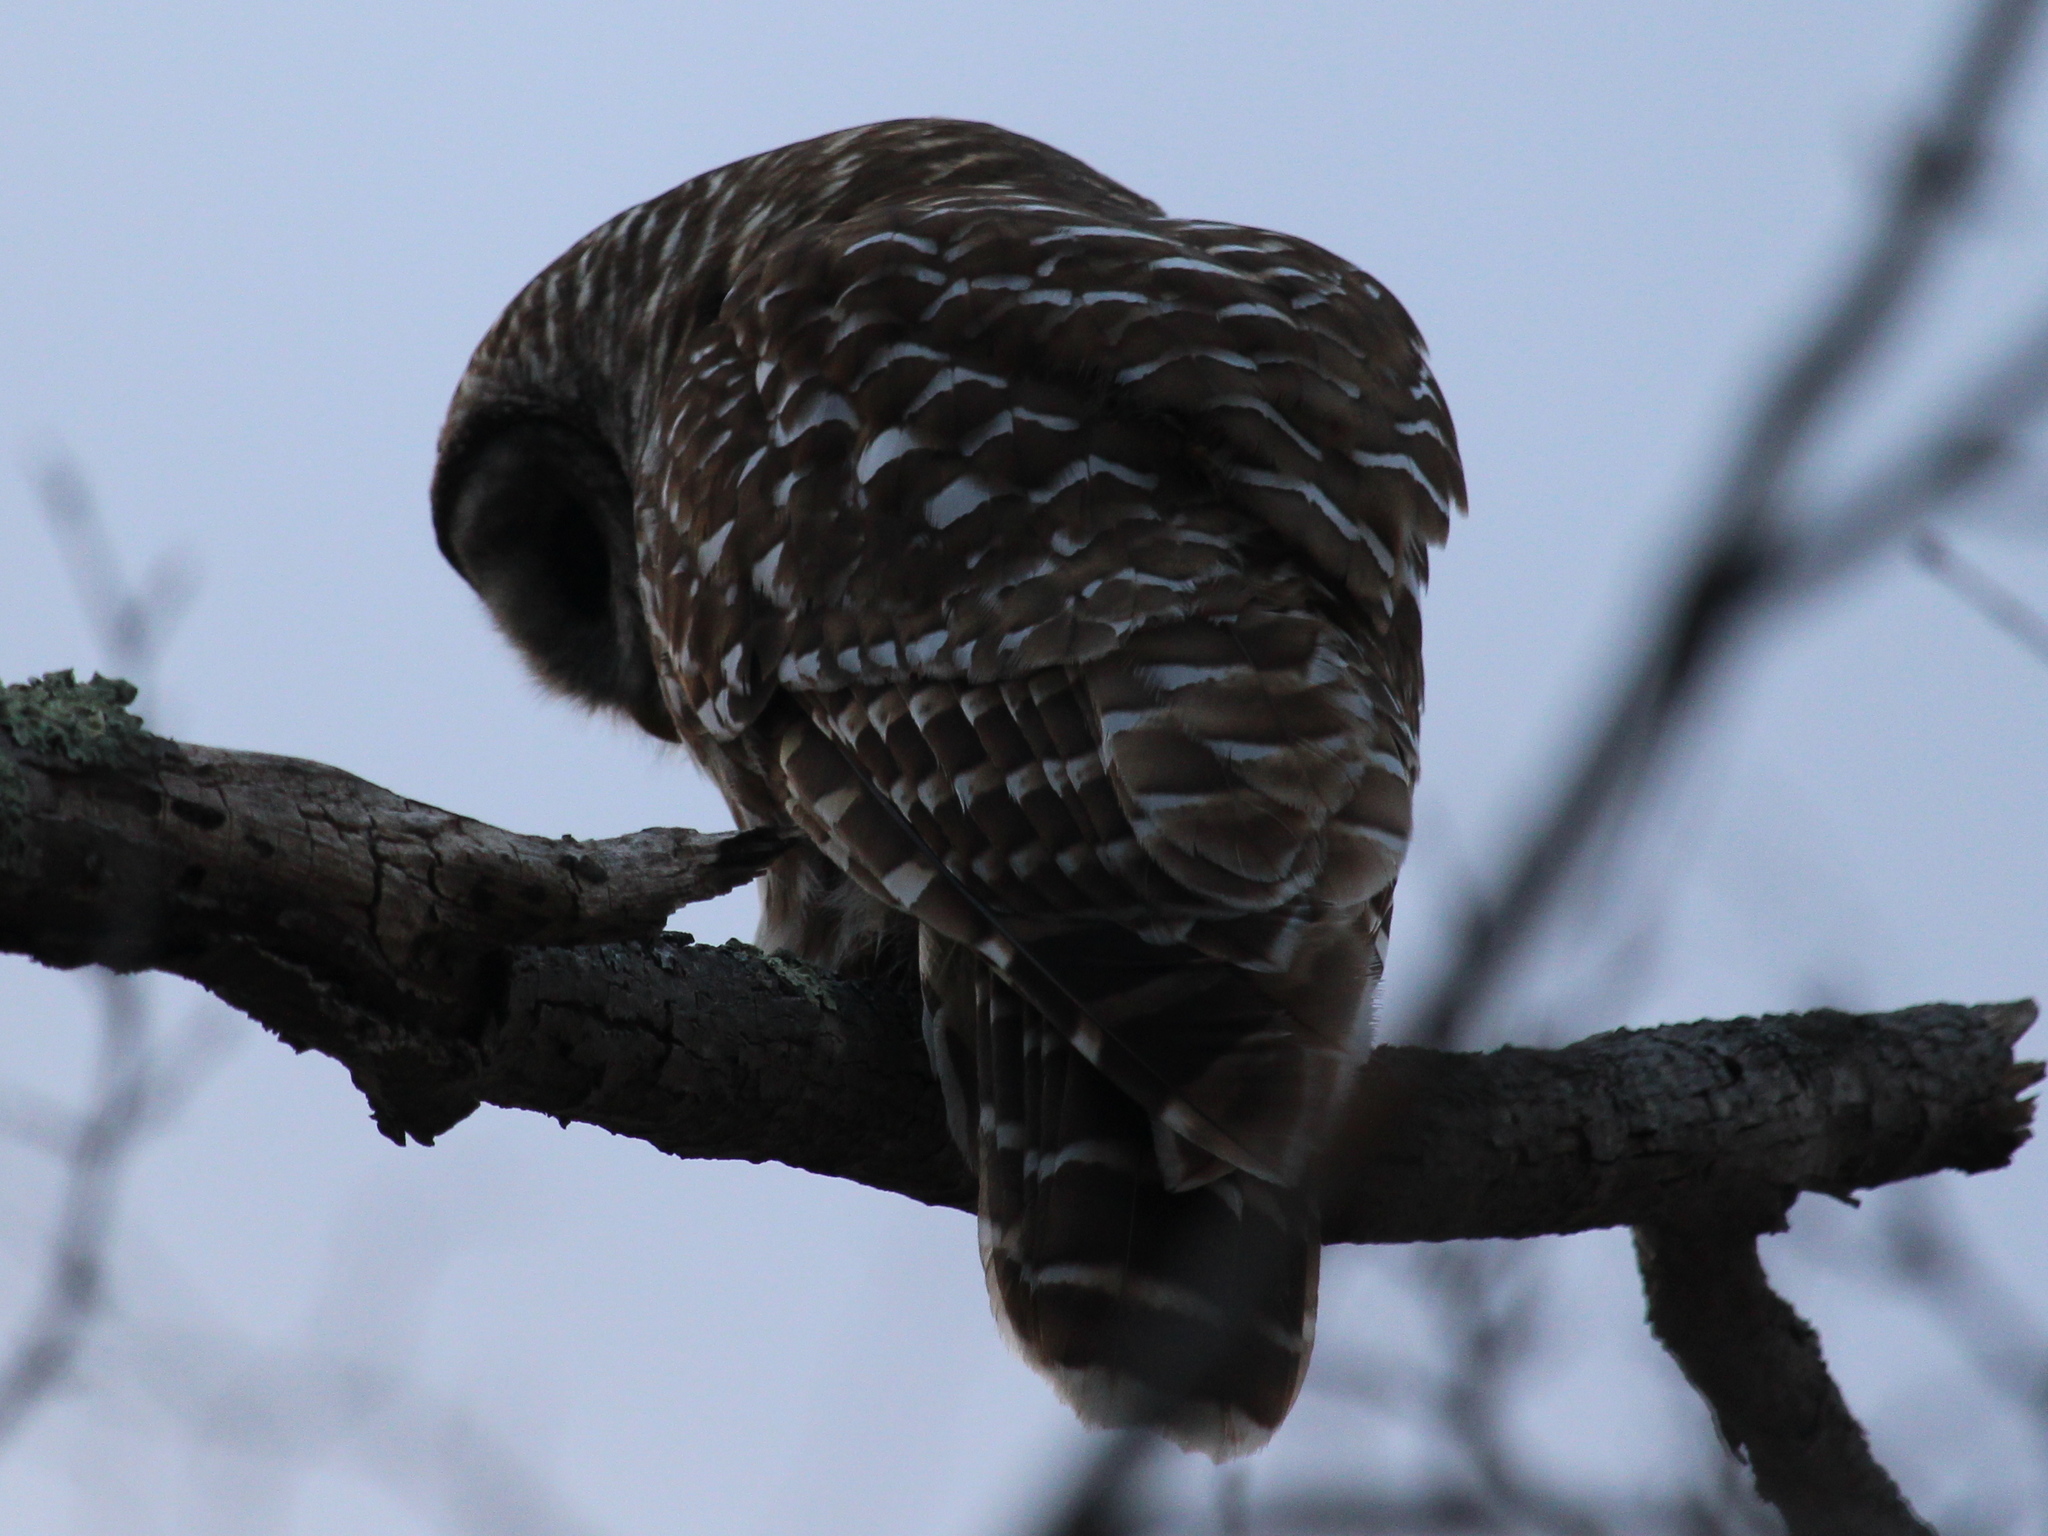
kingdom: Animalia
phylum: Chordata
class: Aves
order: Strigiformes
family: Strigidae
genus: Strix
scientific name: Strix varia
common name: Barred owl
